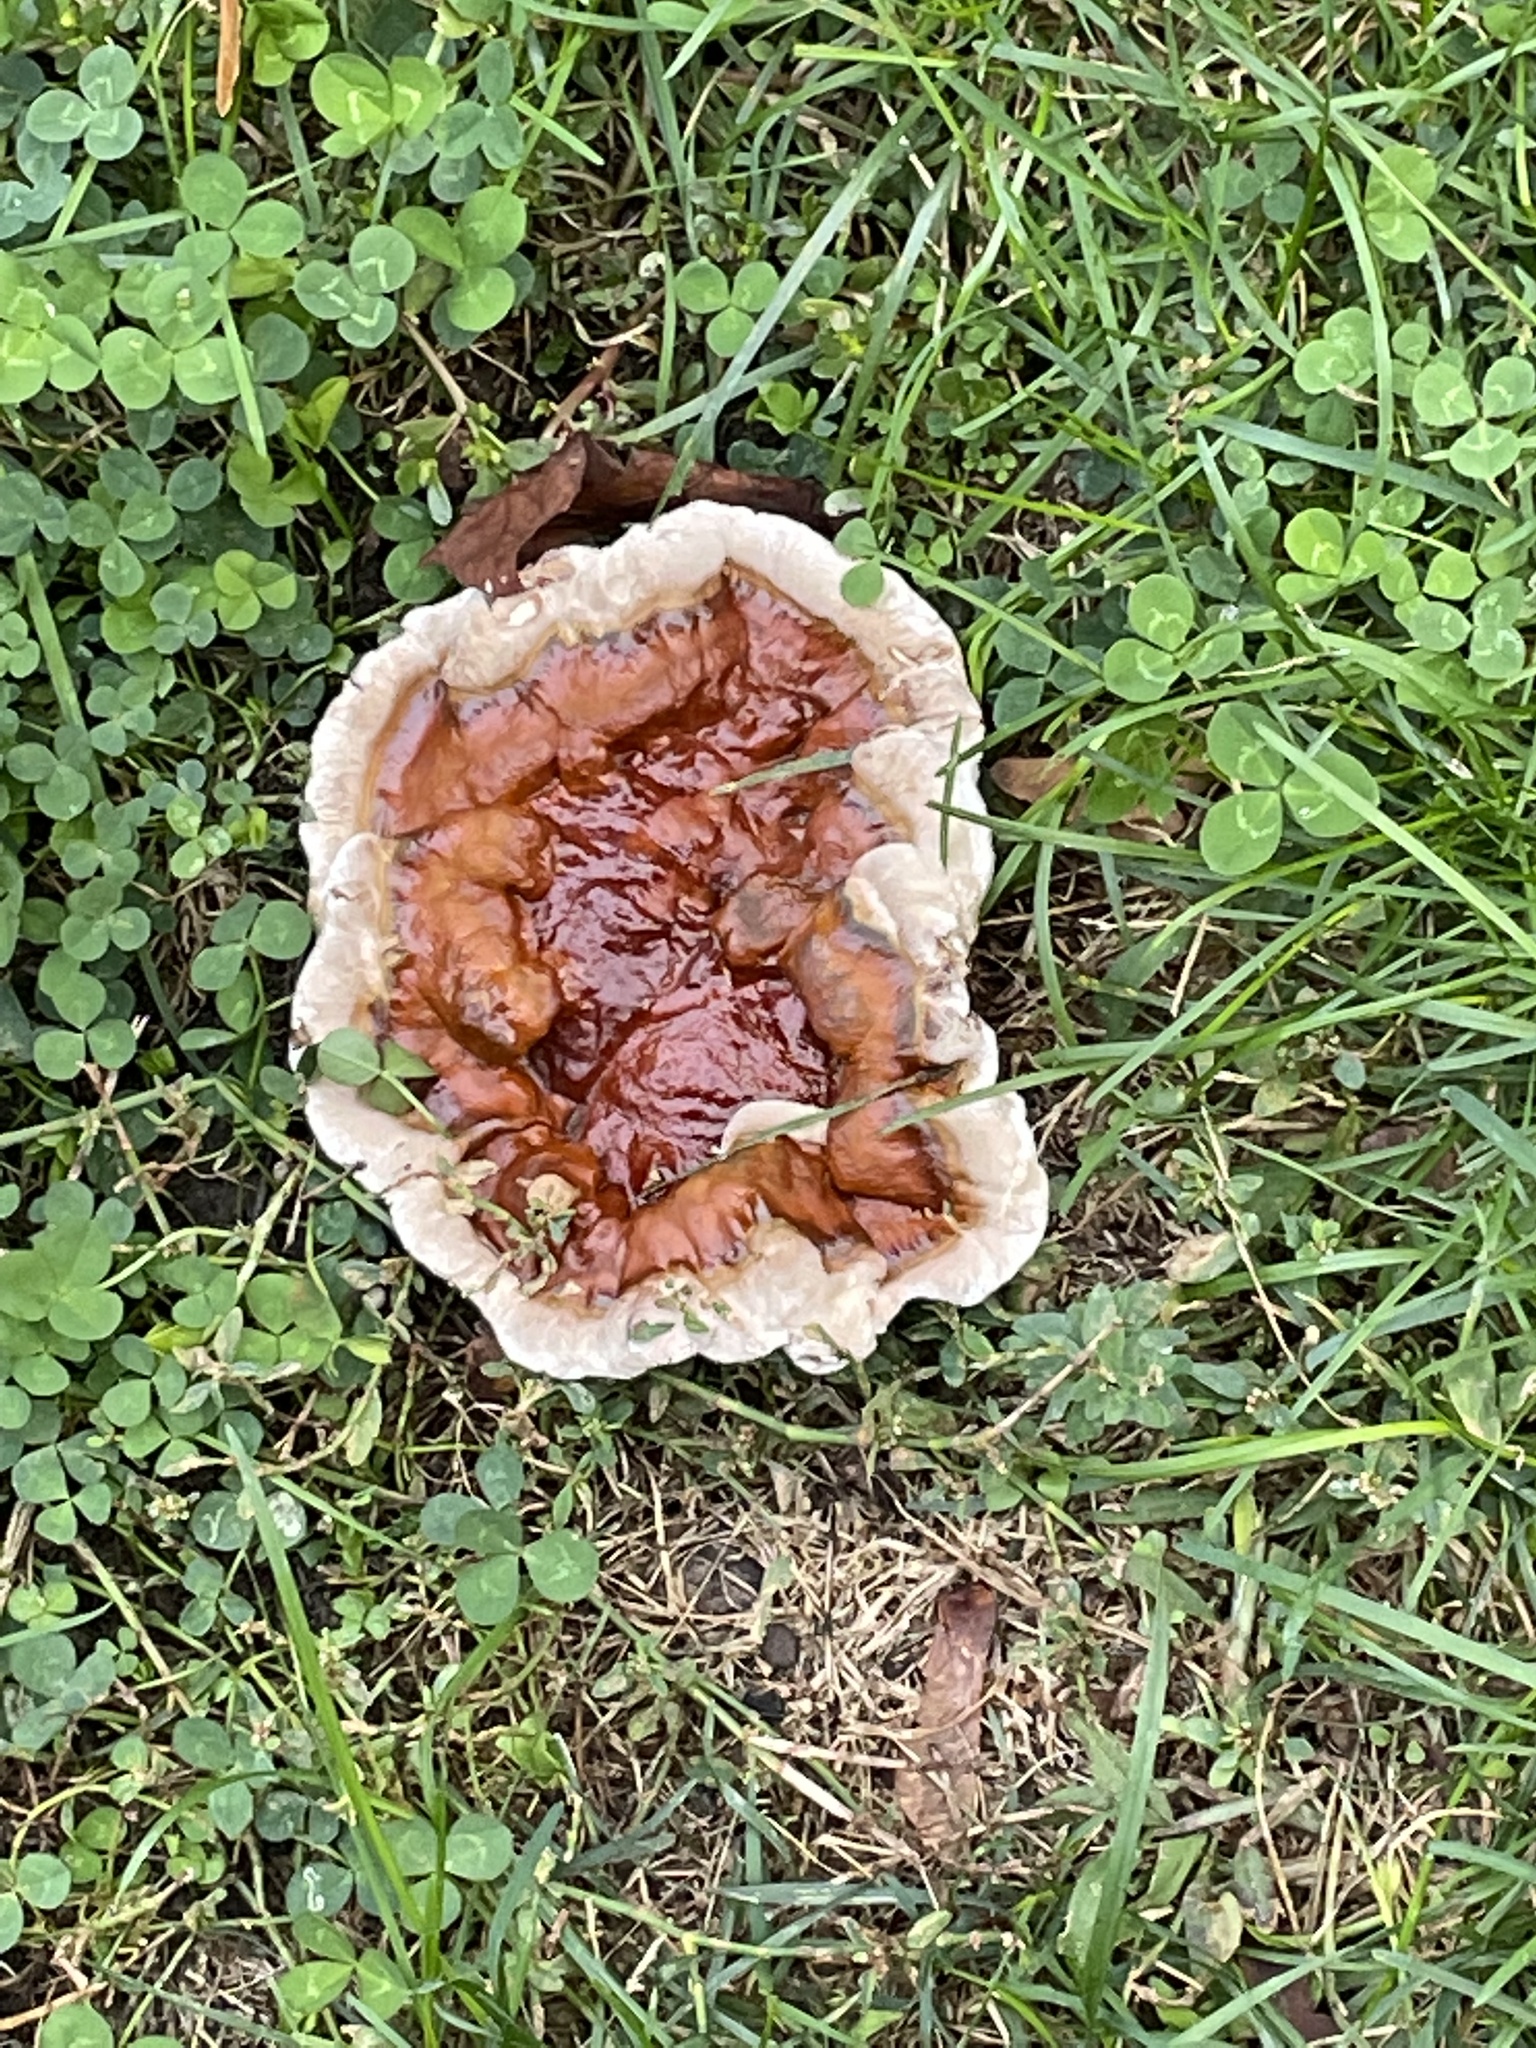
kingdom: Fungi
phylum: Basidiomycota
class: Agaricomycetes
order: Polyporales
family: Polyporaceae
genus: Ganoderma
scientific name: Ganoderma resinaceum
